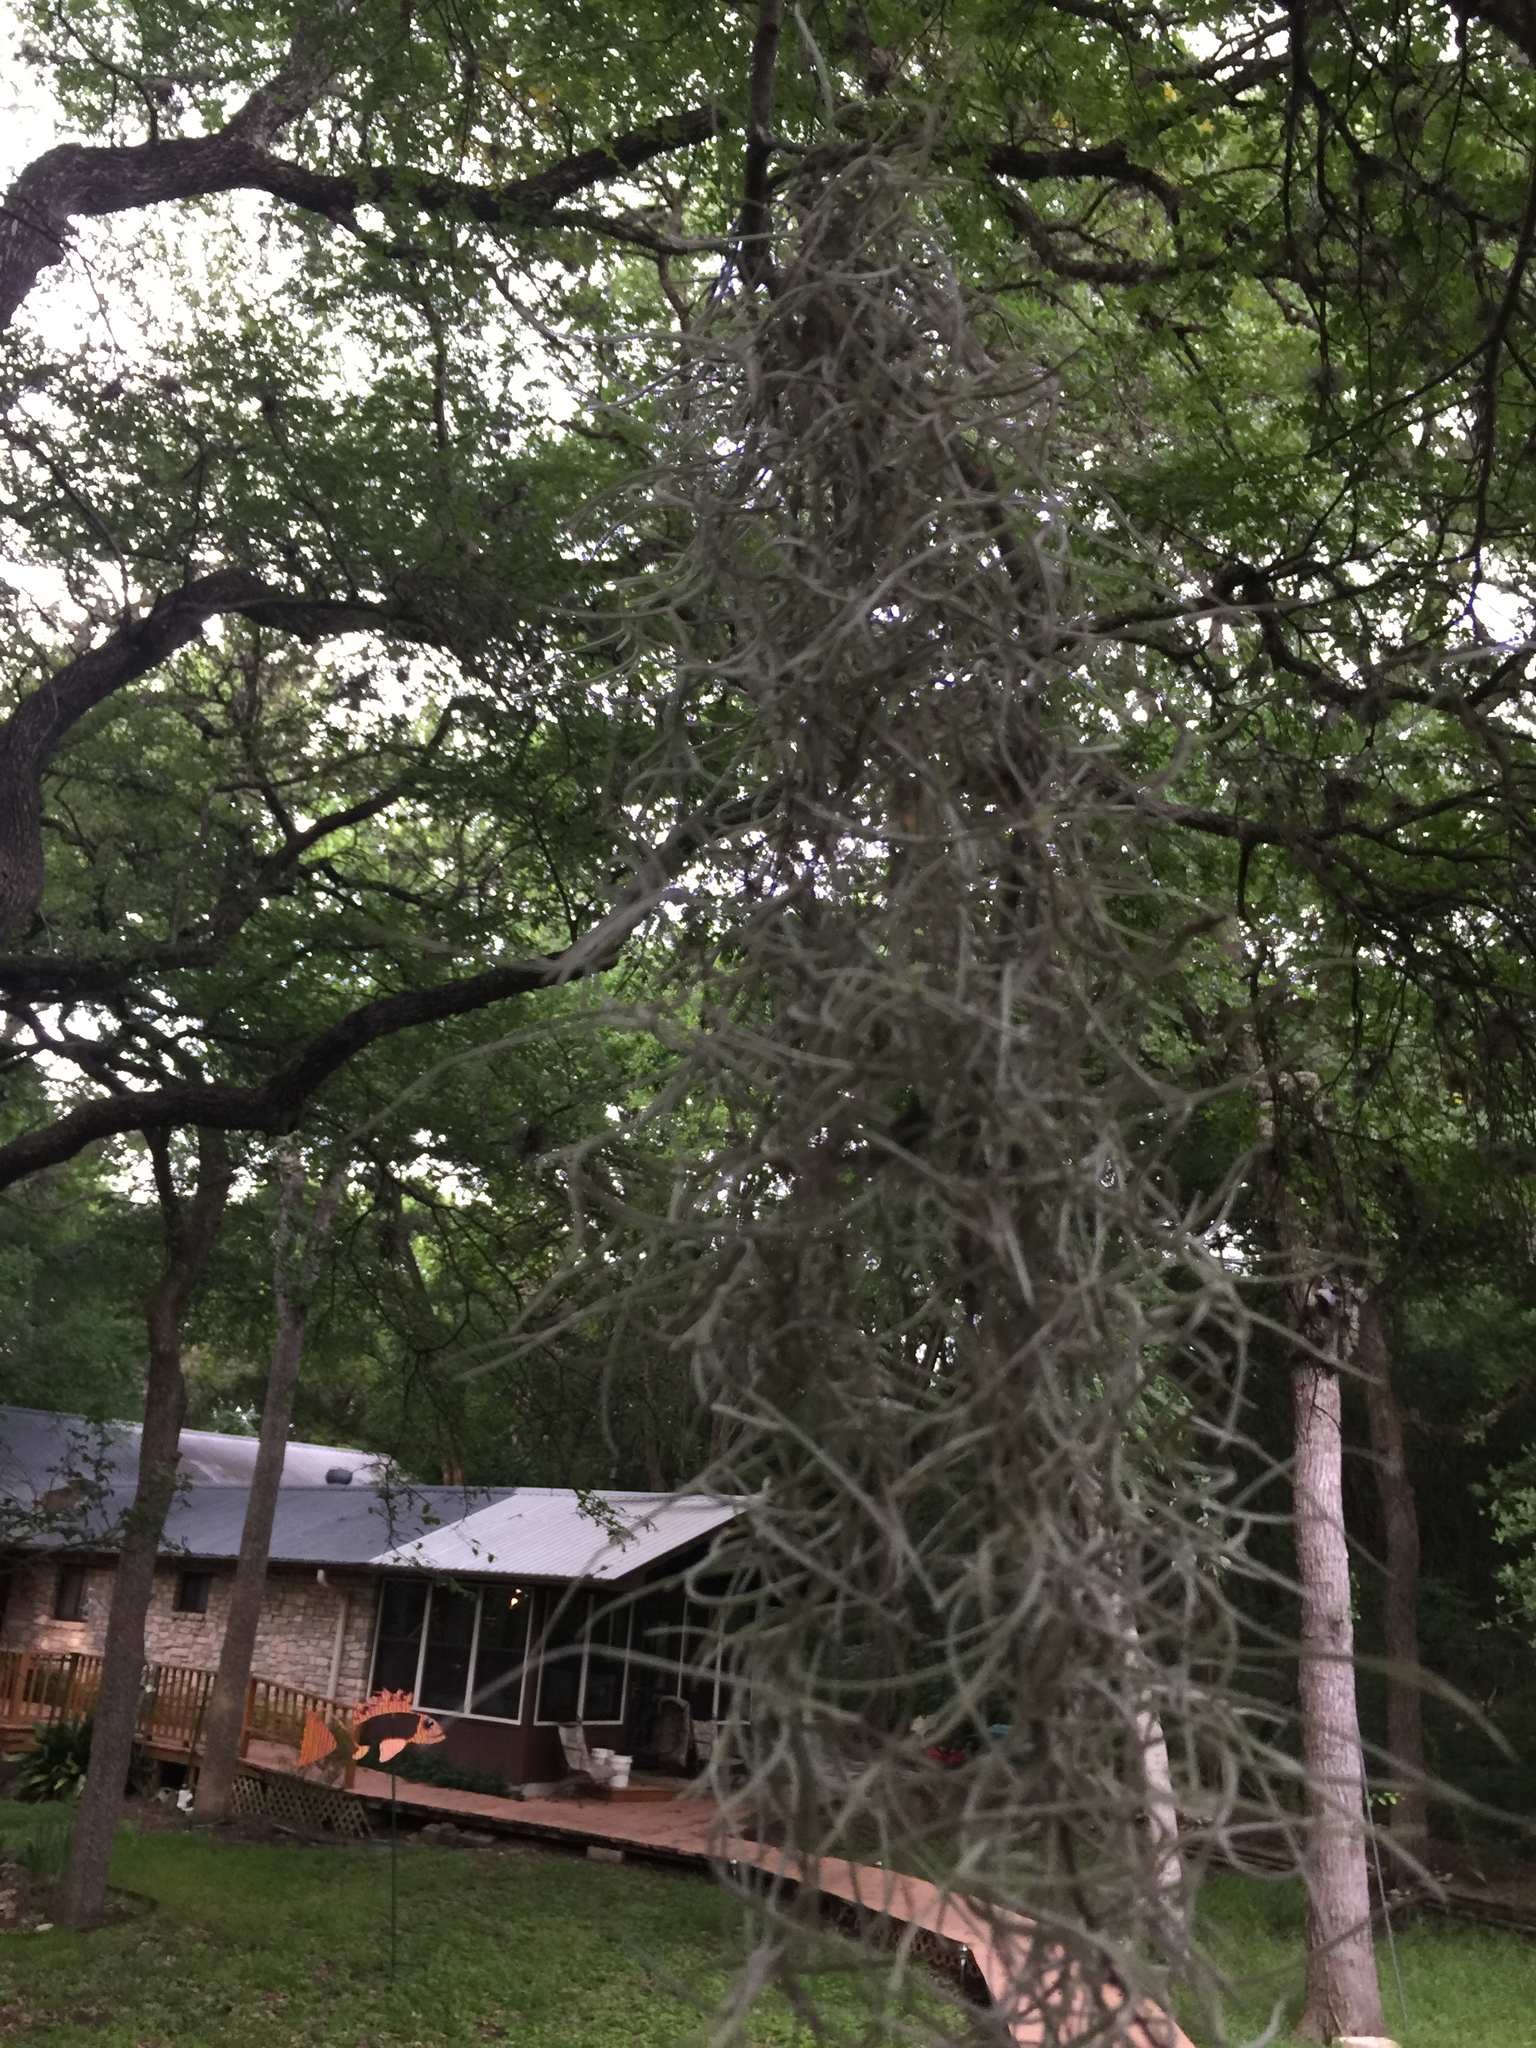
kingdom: Plantae
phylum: Tracheophyta
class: Liliopsida
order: Poales
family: Bromeliaceae
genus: Tillandsia
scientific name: Tillandsia usneoides
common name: Spanish moss
